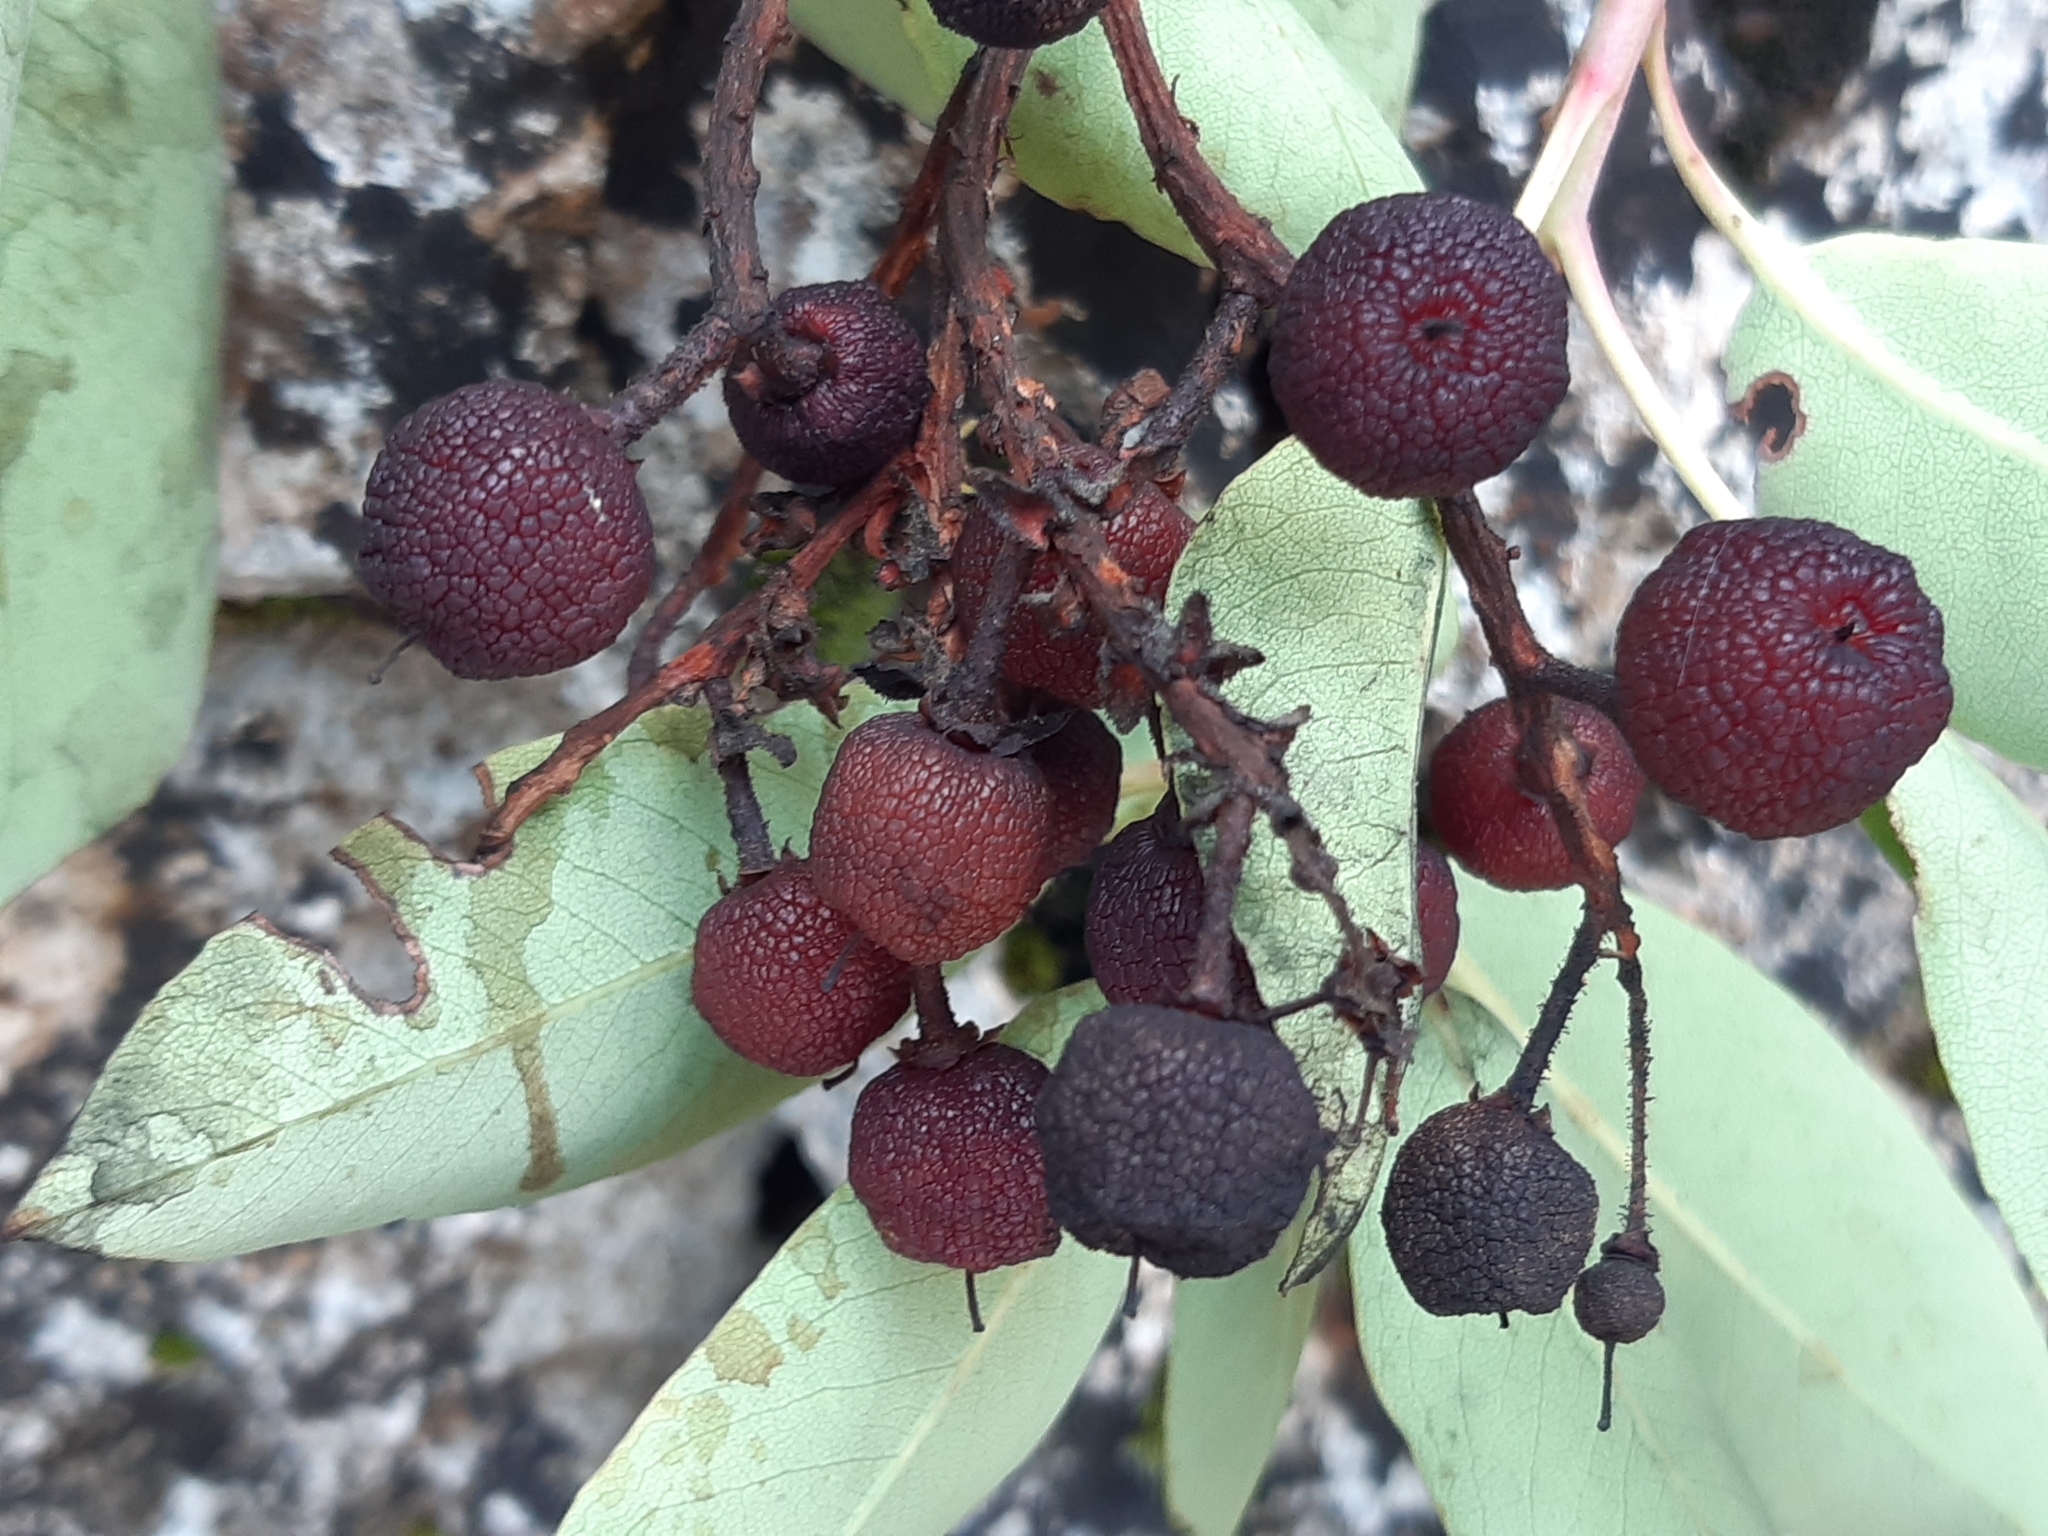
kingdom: Plantae
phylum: Tracheophyta
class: Magnoliopsida
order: Ericales
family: Ericaceae
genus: Arbutus
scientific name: Arbutus andrachne
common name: Greek strawberry tree
